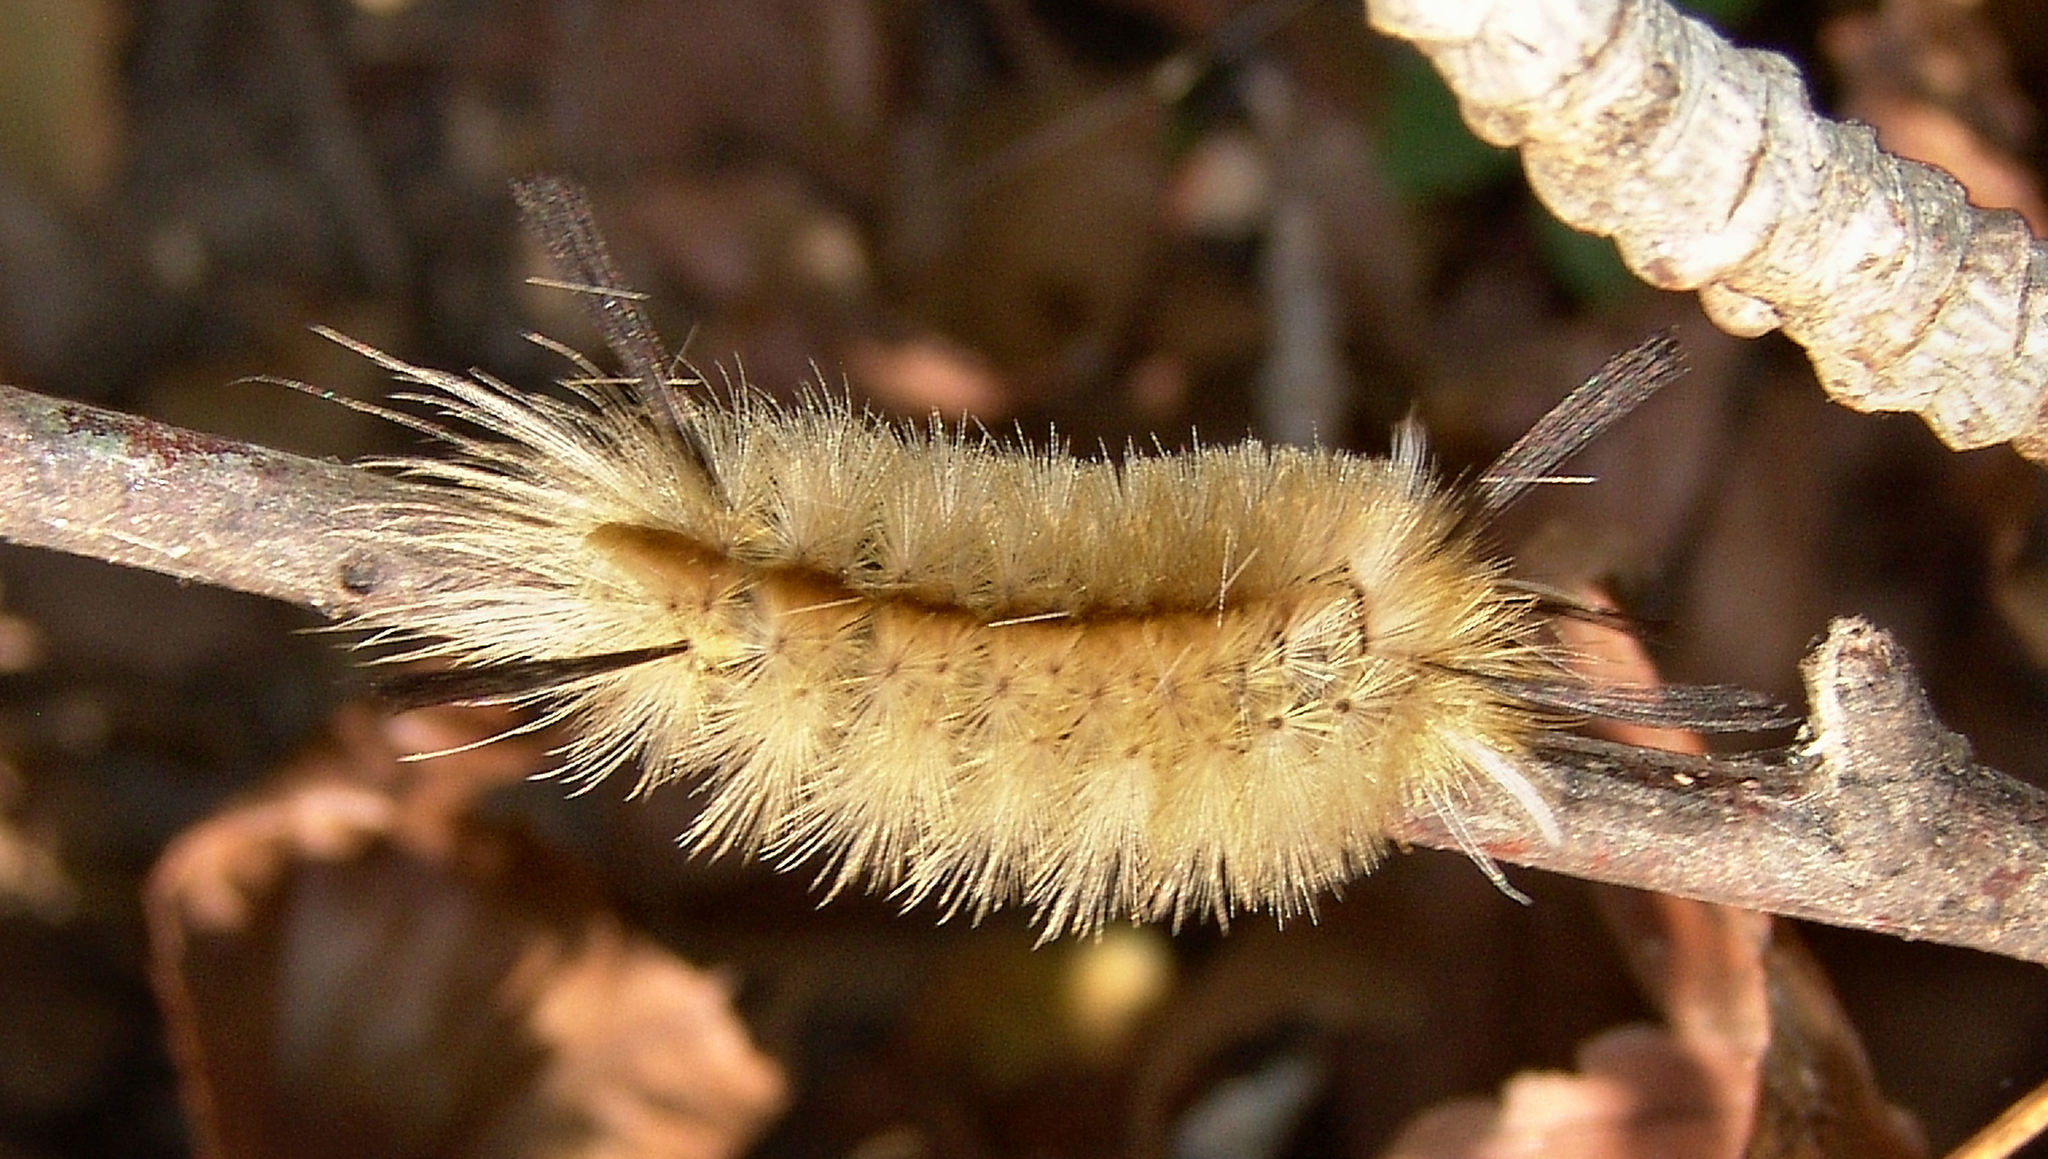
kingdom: Animalia
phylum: Arthropoda
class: Insecta
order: Lepidoptera
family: Erebidae
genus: Halysidota
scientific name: Halysidota tessellaris
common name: Banded tussock moth
